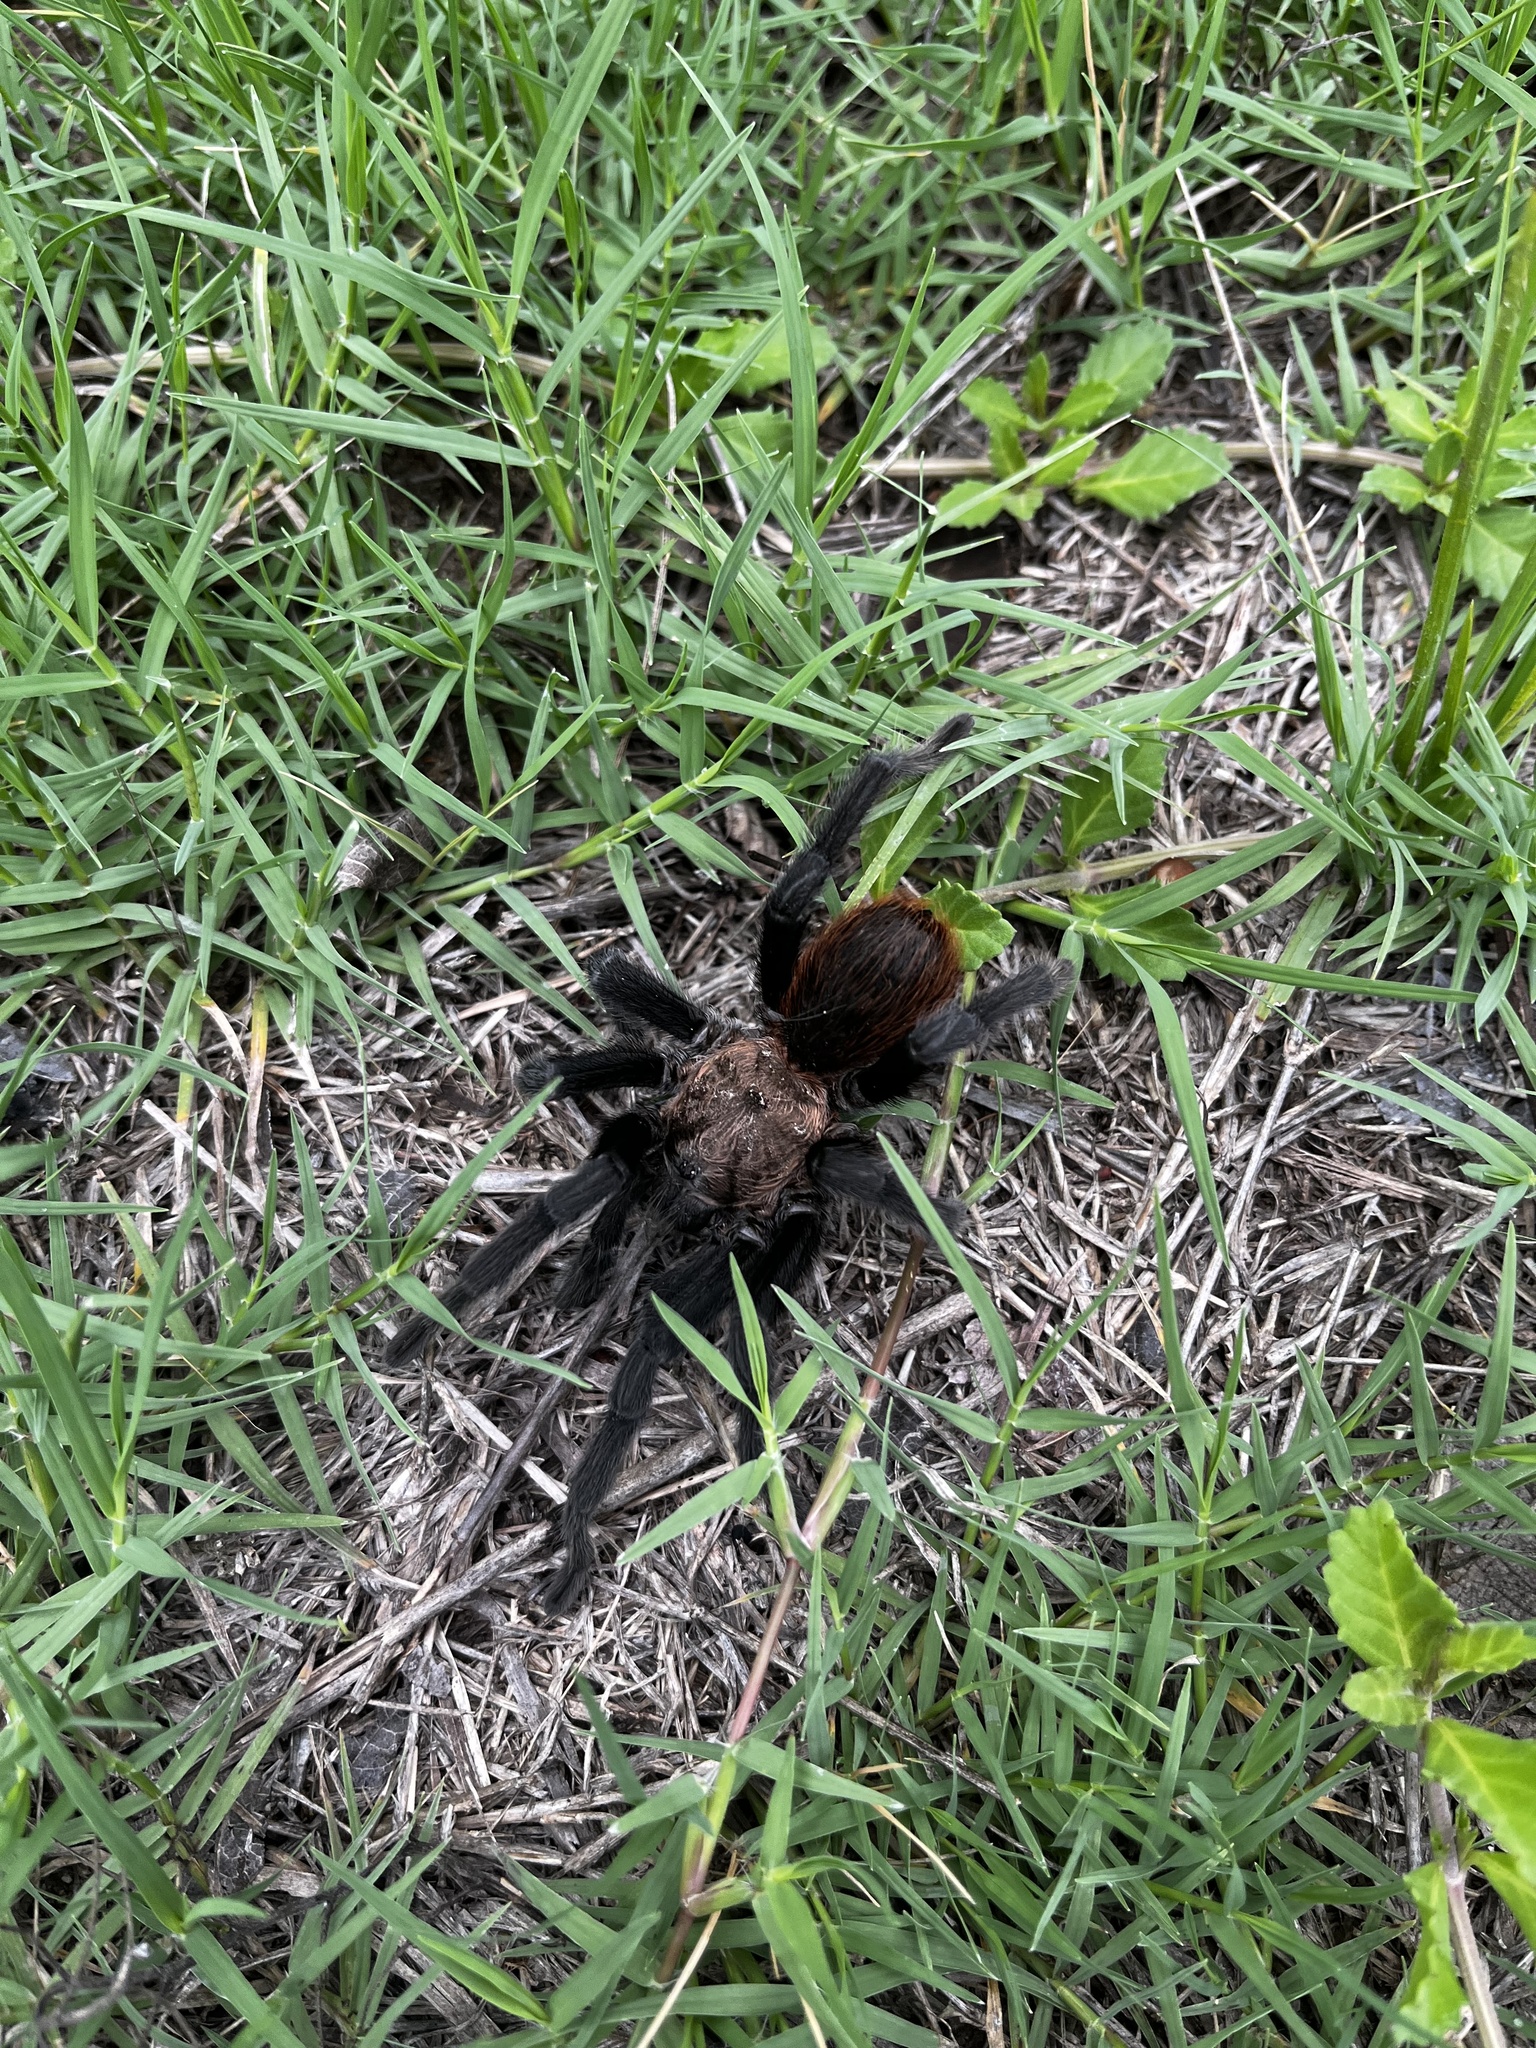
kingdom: Animalia
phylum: Arthropoda
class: Arachnida
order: Araneae
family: Theraphosidae
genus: Aphonopelma
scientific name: Aphonopelma armada
